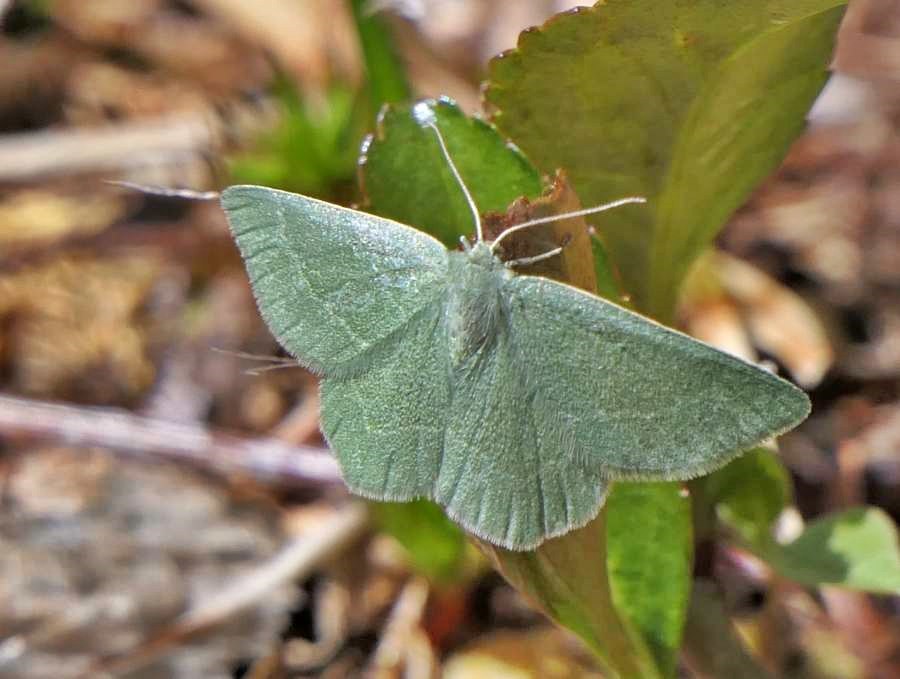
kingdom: Animalia
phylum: Arthropoda
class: Insecta
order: Lepidoptera
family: Geometridae
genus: Mesothea
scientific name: Mesothea incertata
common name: Day emerald moth
